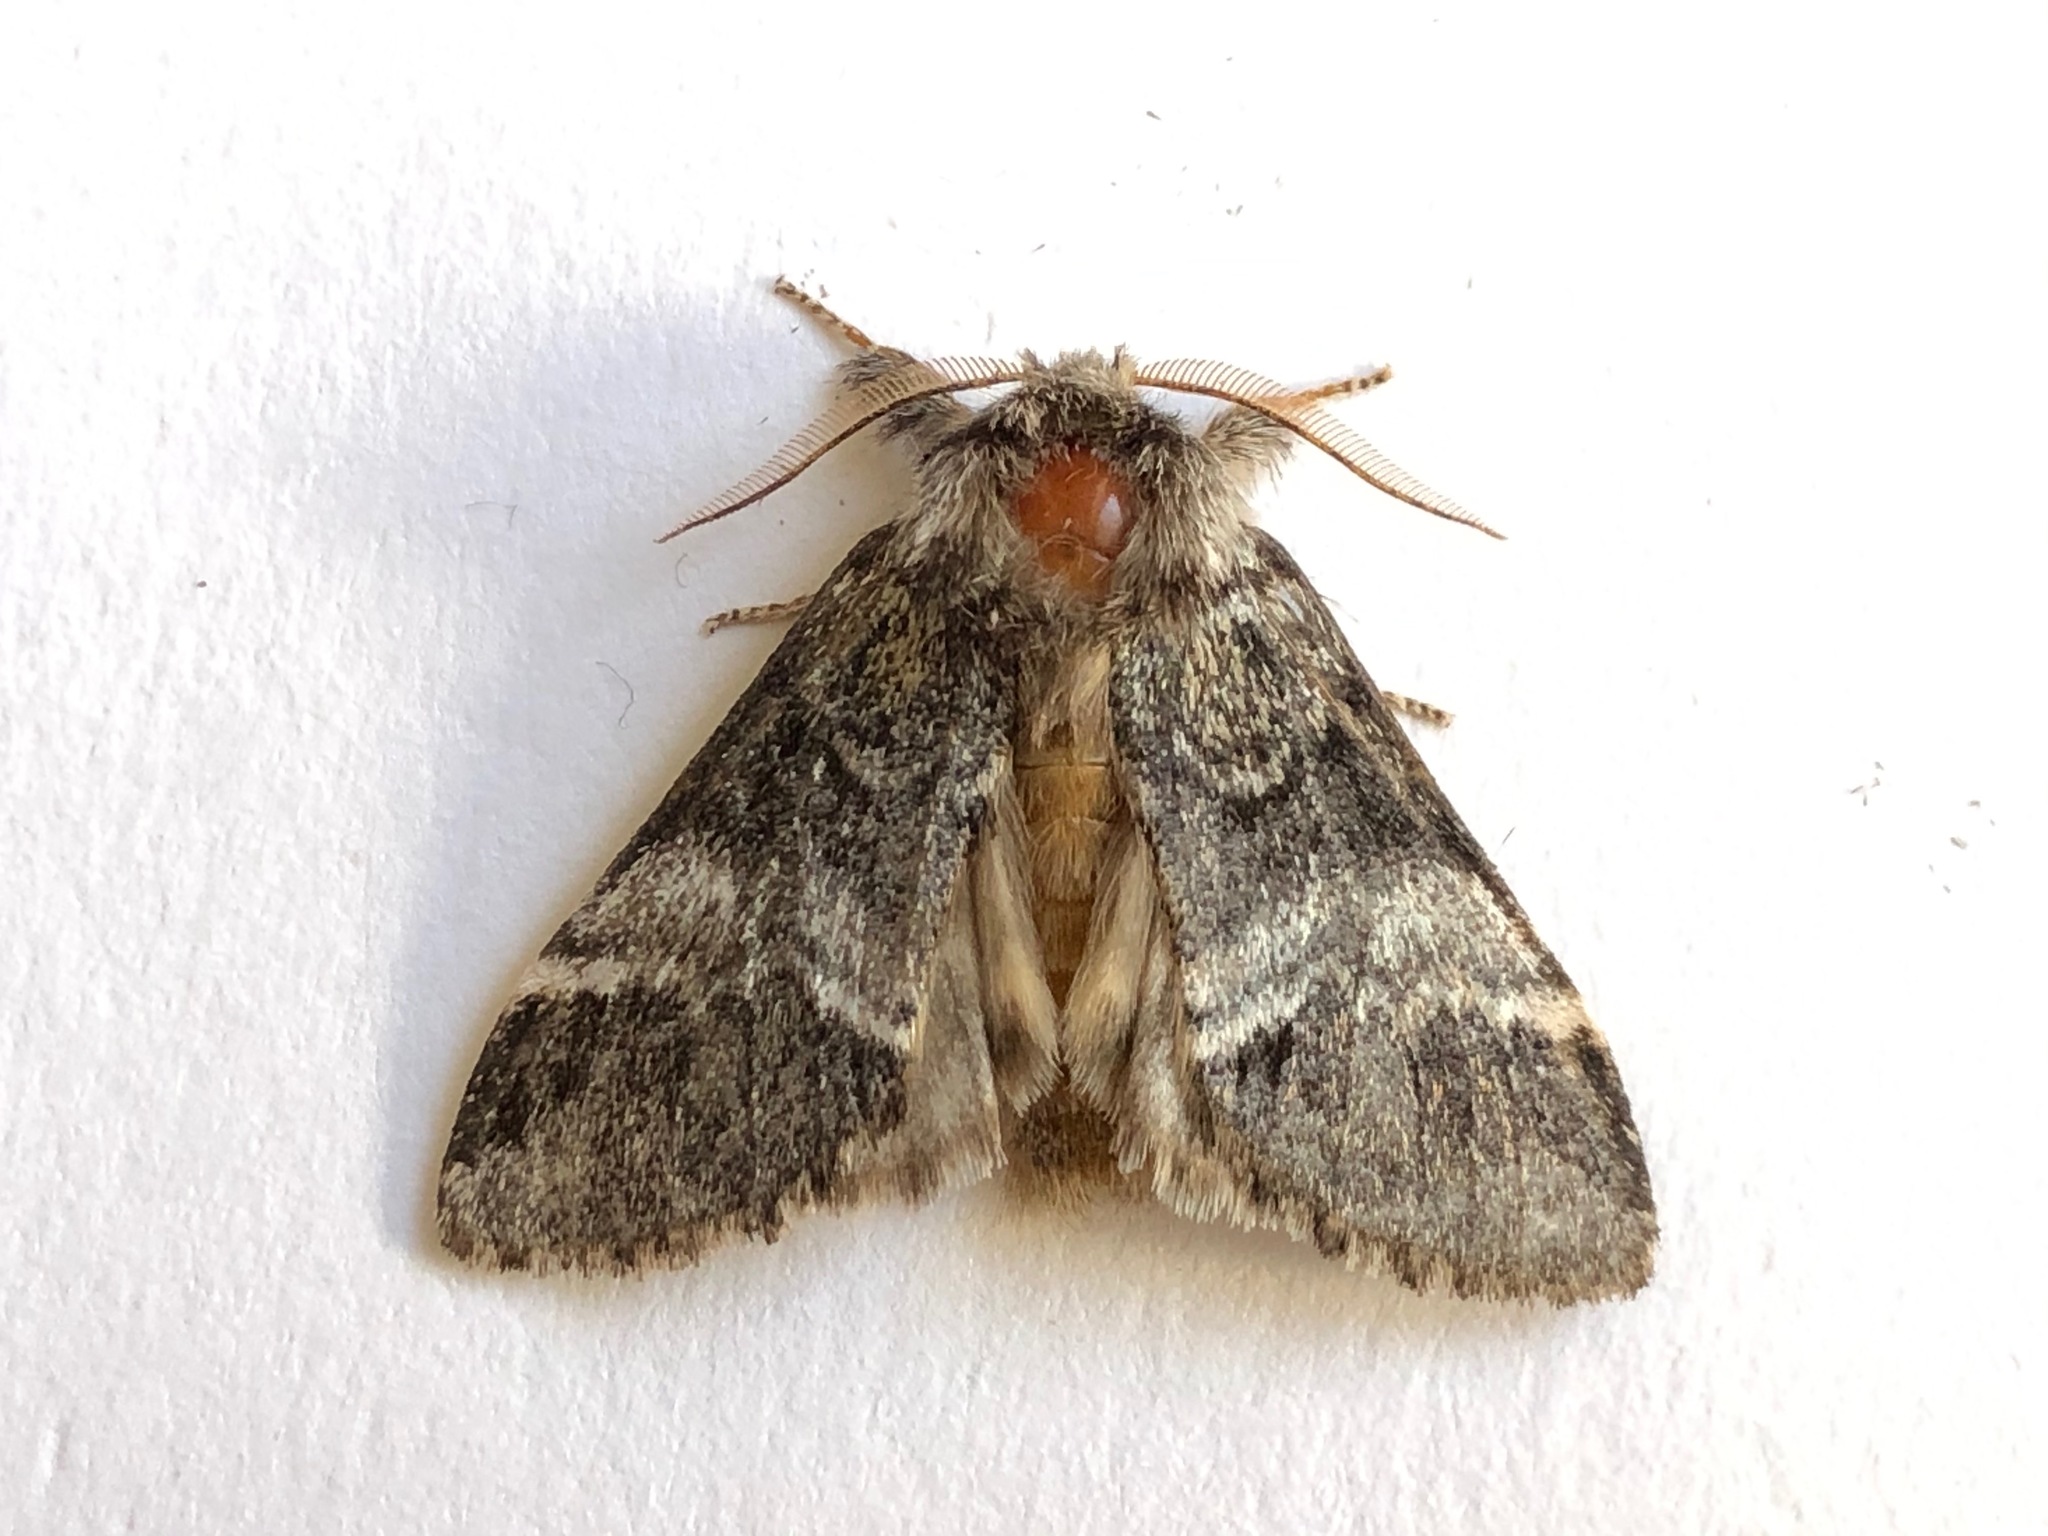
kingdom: Animalia
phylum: Arthropoda
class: Insecta
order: Lepidoptera
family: Notodontidae
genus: Drymonia
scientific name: Drymonia dodonaea
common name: Marbled brown
